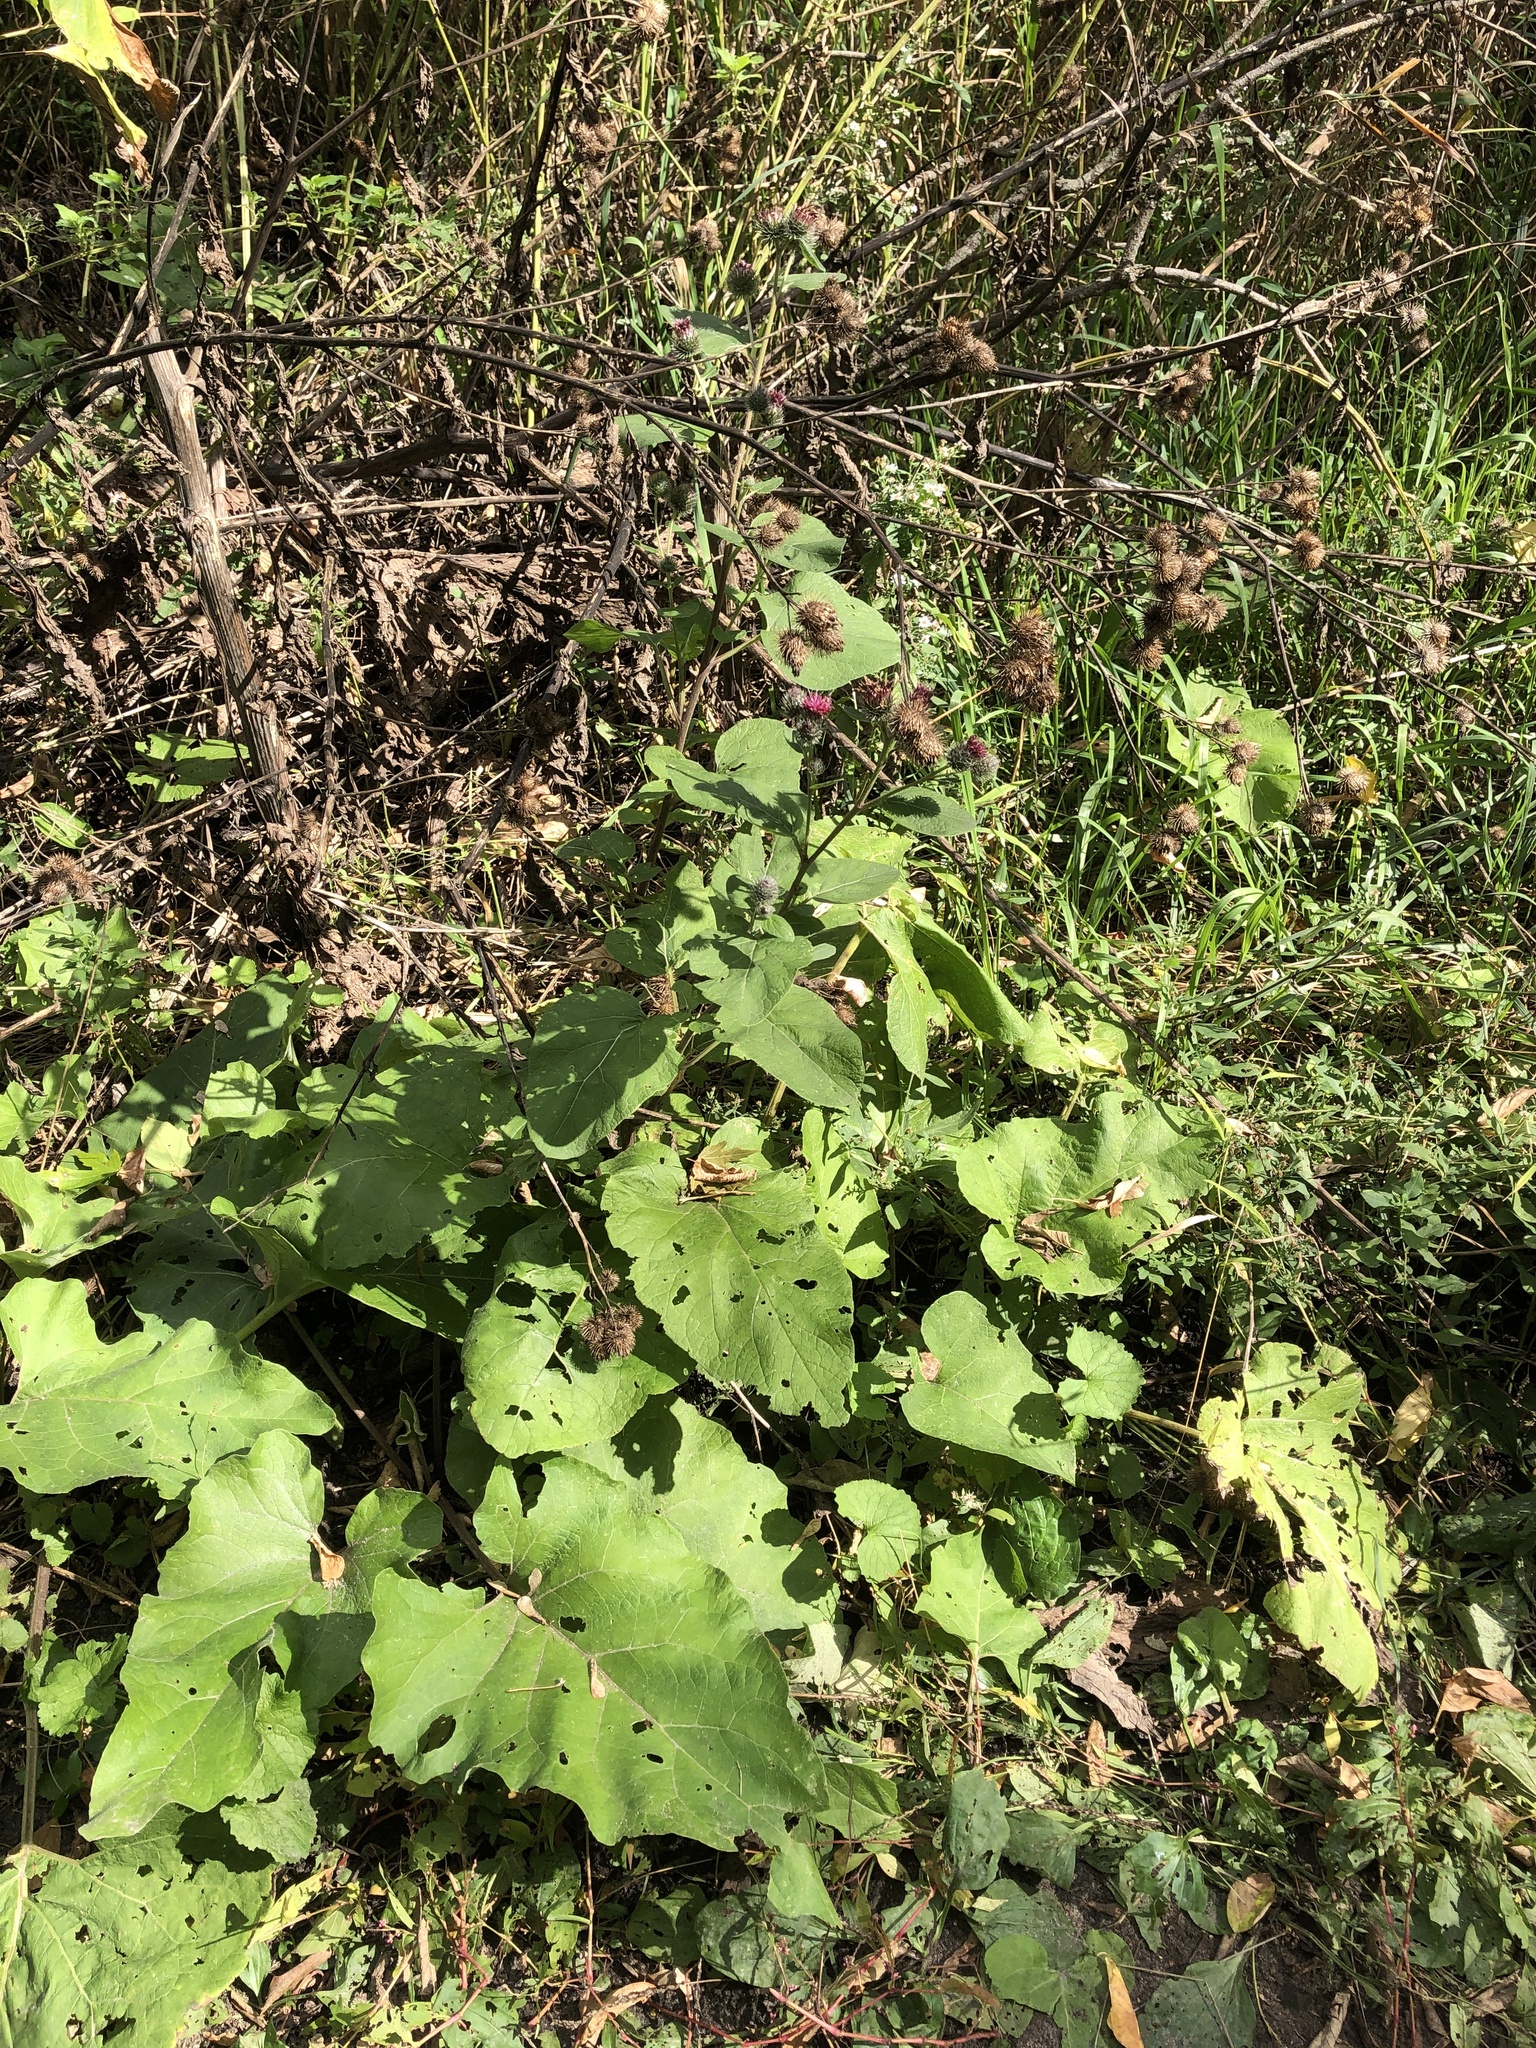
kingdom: Plantae
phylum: Tracheophyta
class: Magnoliopsida
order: Asterales
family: Asteraceae
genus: Arctium
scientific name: Arctium tomentosum
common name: Woolly burdock
